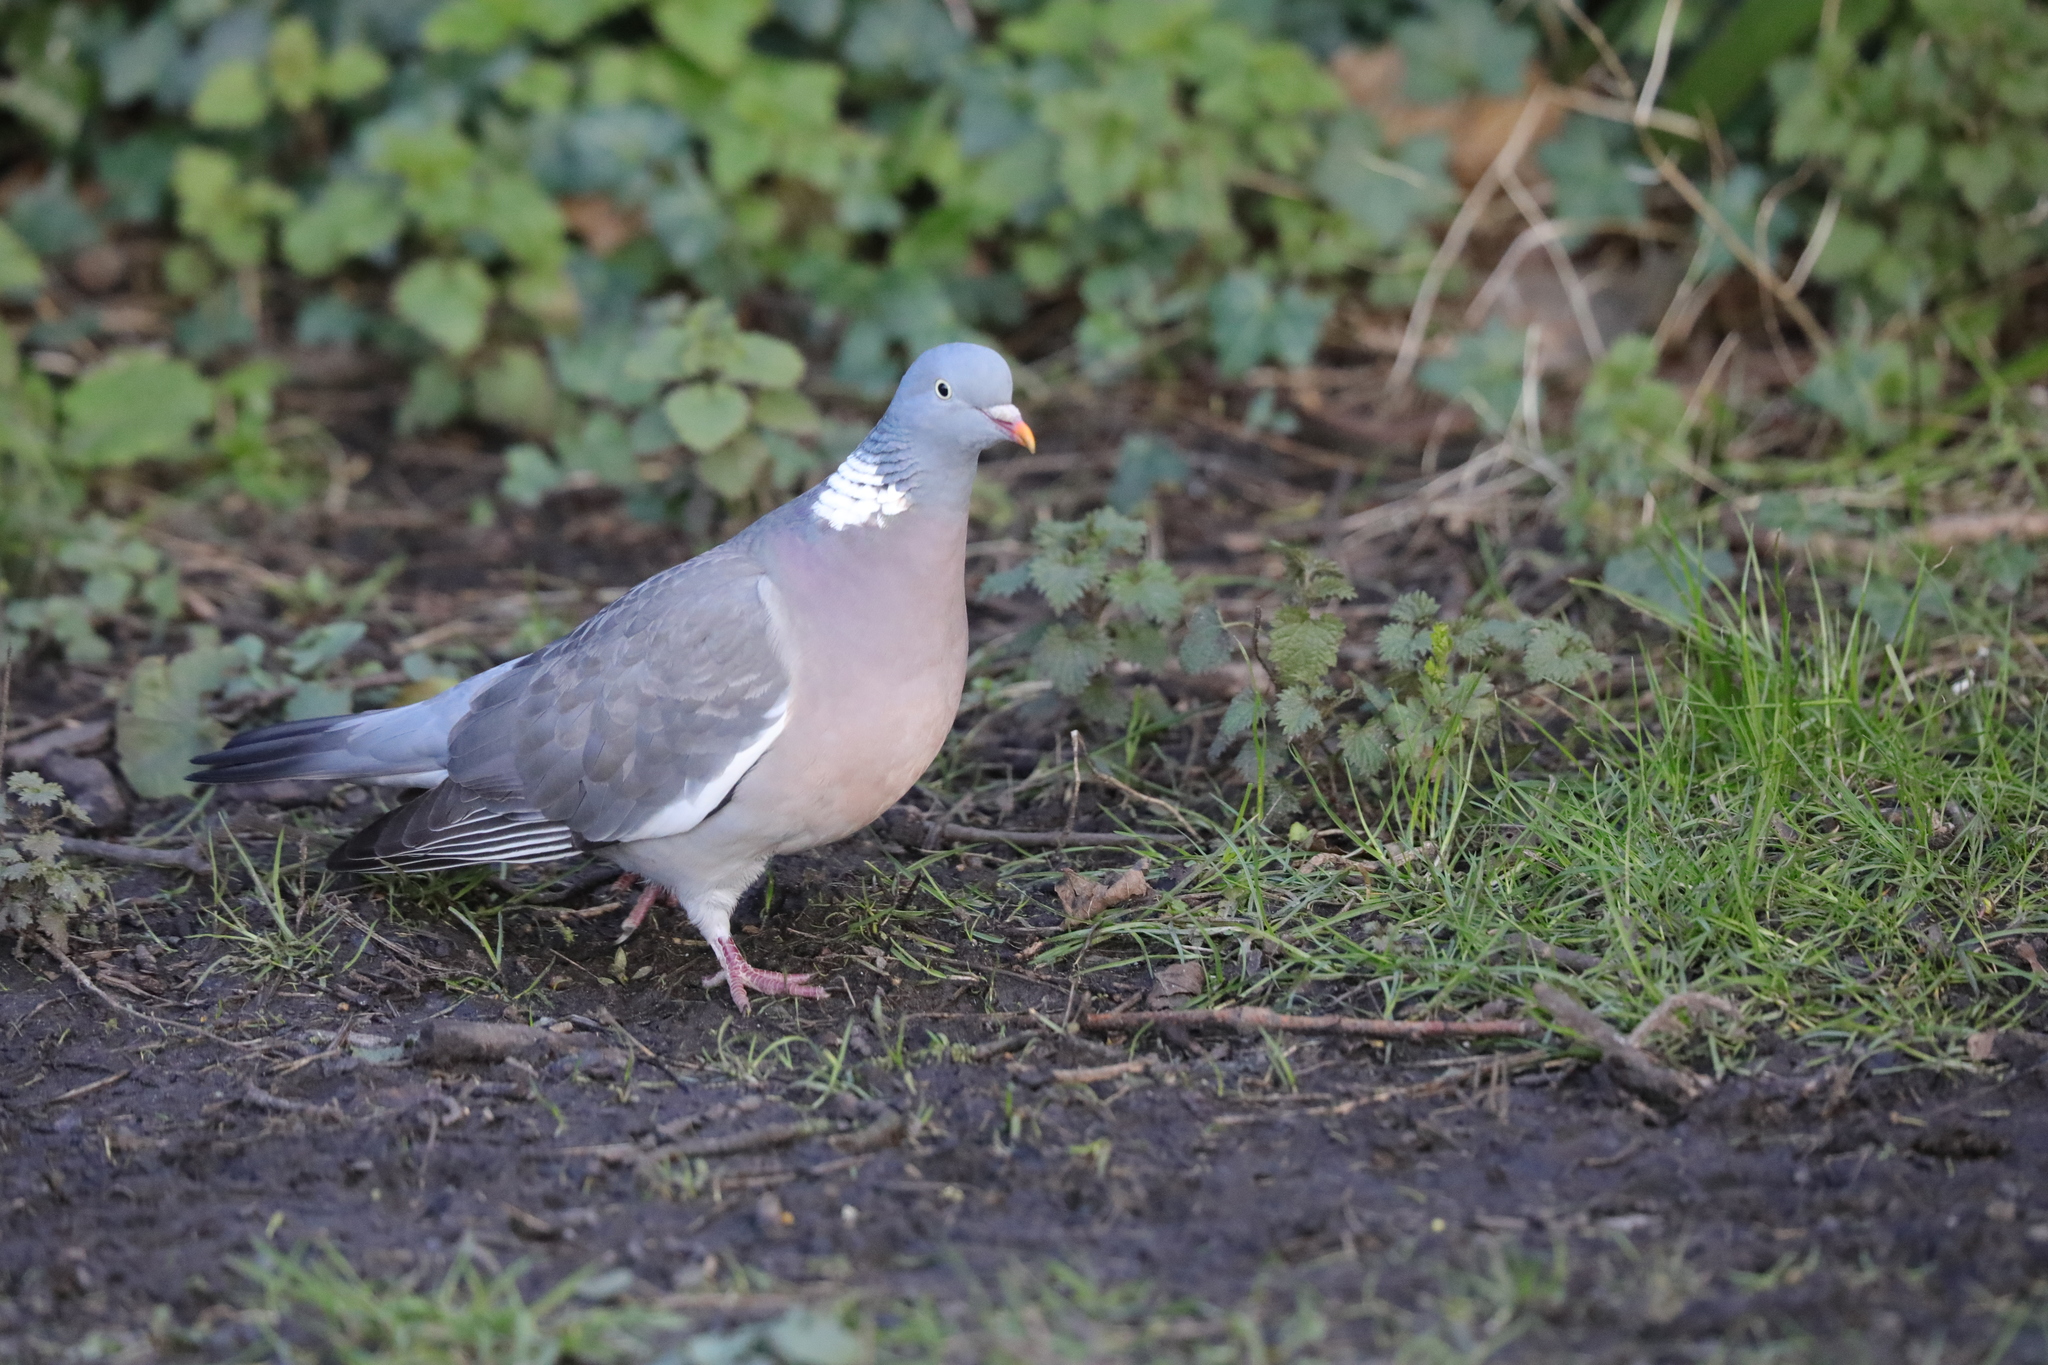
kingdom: Animalia
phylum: Chordata
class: Aves
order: Columbiformes
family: Columbidae
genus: Columba
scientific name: Columba palumbus
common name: Common wood pigeon
